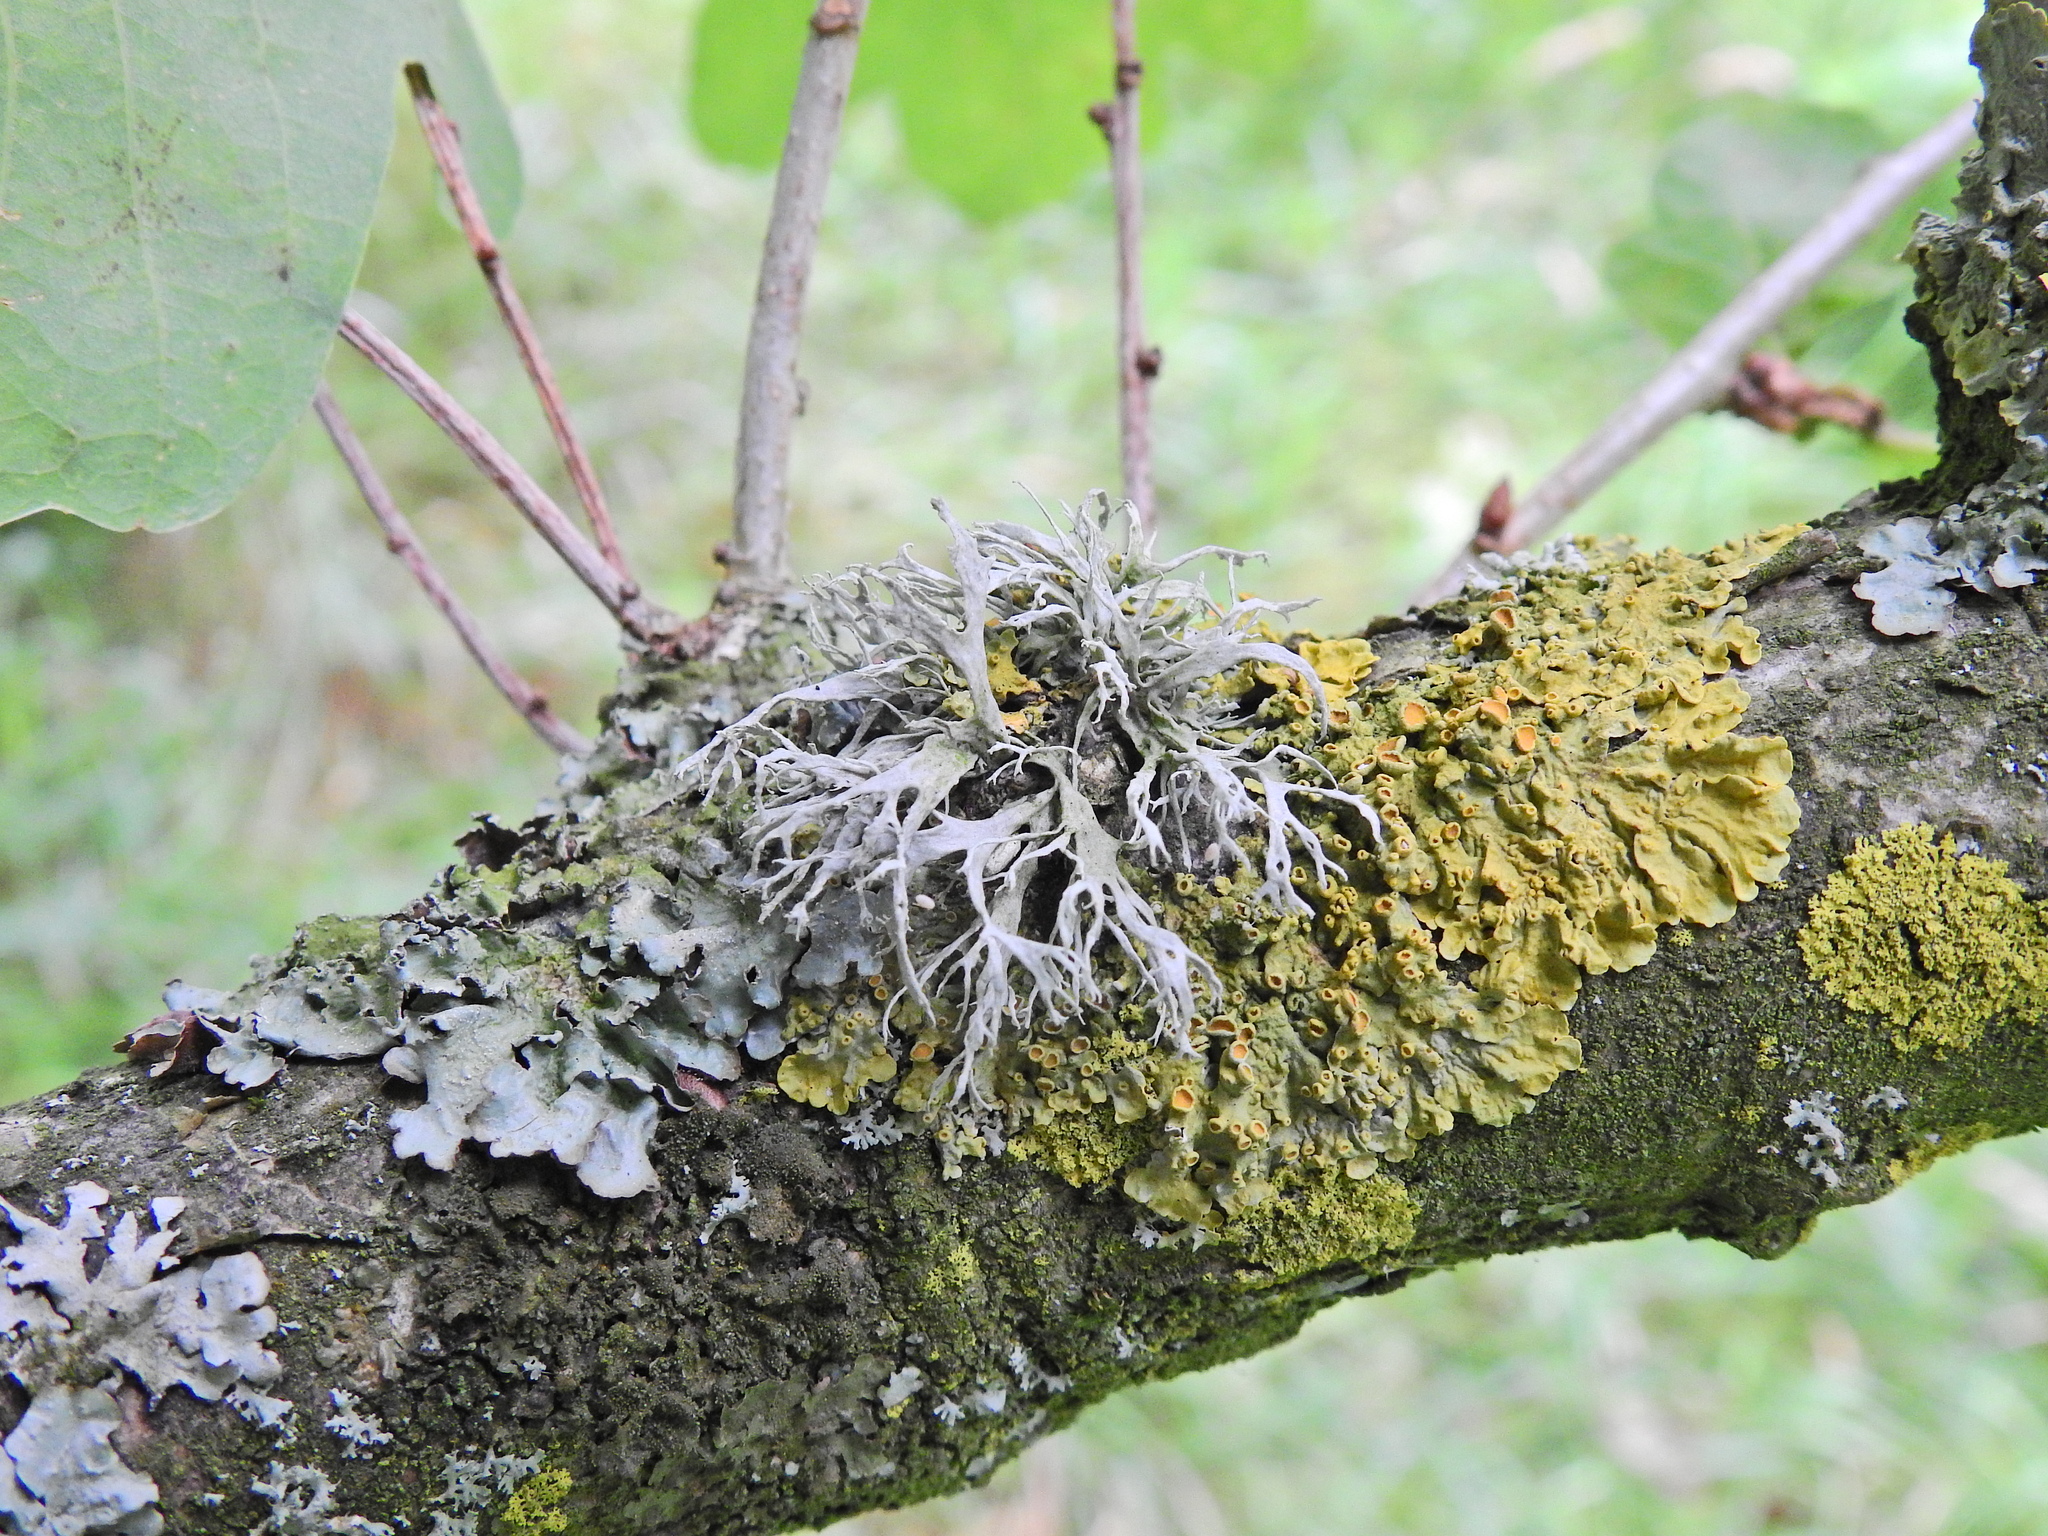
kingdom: Fungi
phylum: Ascomycota
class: Lecanoromycetes
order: Teloschistales
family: Teloschistaceae
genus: Xanthoria
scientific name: Xanthoria parietina
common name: Common orange lichen
